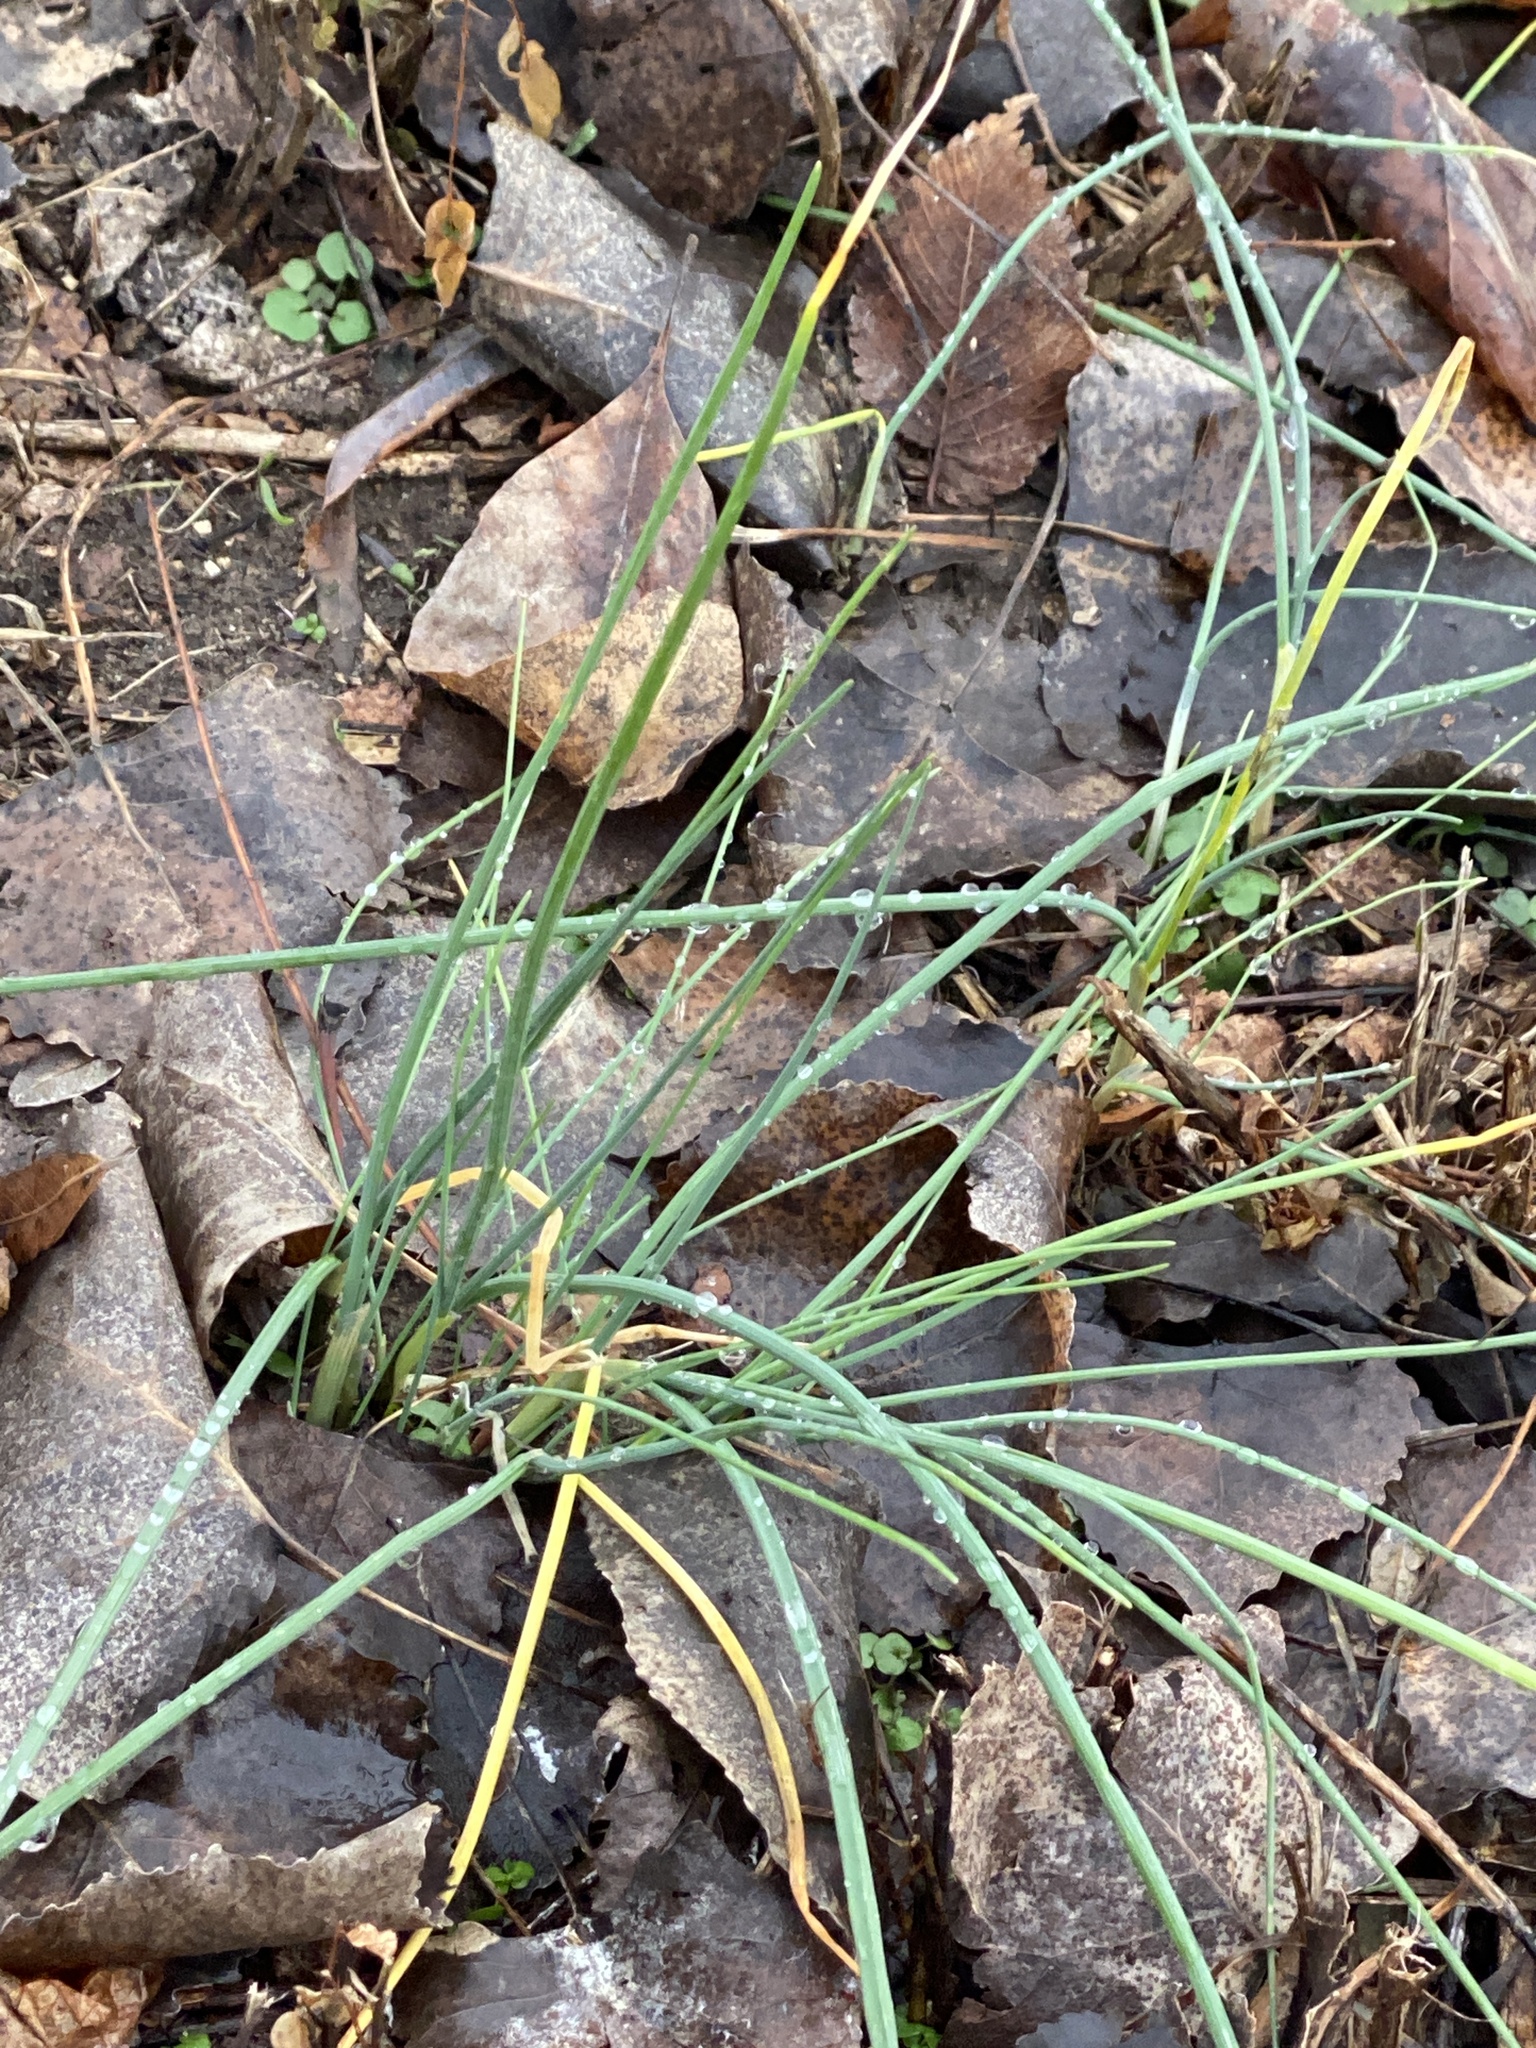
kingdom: Plantae
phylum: Tracheophyta
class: Liliopsida
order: Asparagales
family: Amaryllidaceae
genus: Allium
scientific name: Allium vineale
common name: Crow garlic
